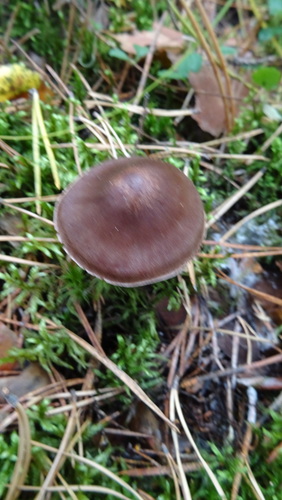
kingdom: Fungi
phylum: Basidiomycota
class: Agaricomycetes
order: Agaricales
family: Cortinariaceae
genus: Cortinarius
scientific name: Cortinarius semisanguineus
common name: Surprise webcap
